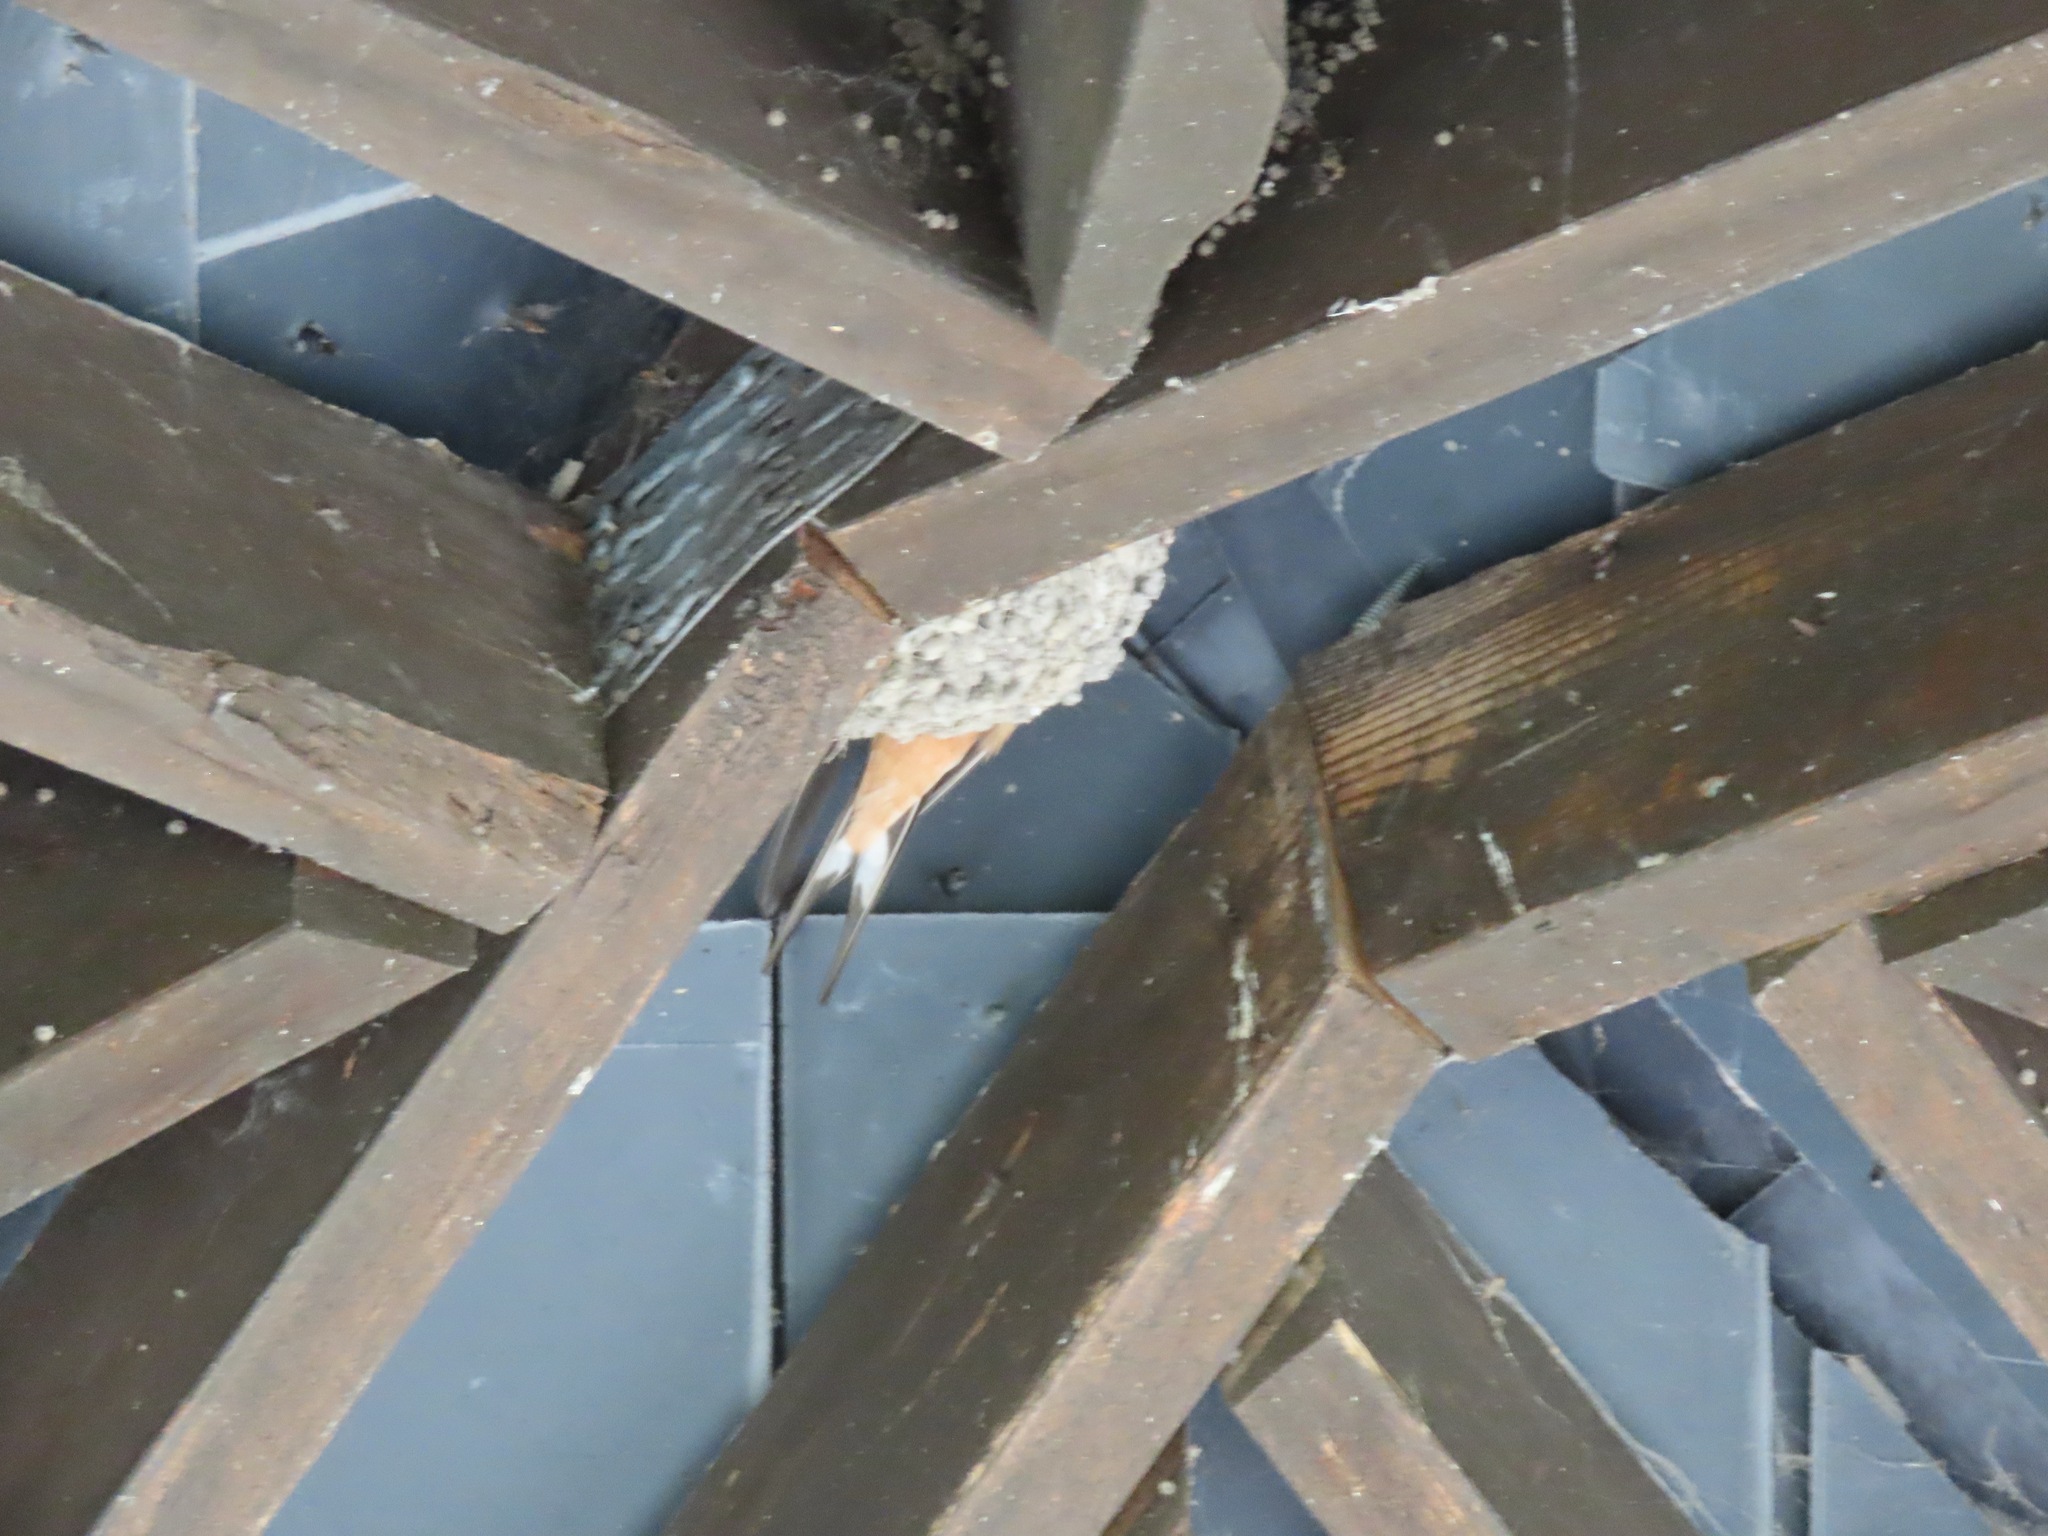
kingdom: Animalia
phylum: Chordata
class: Aves
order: Passeriformes
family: Hirundinidae
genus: Hirundo
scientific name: Hirundo rustica
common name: Barn swallow
